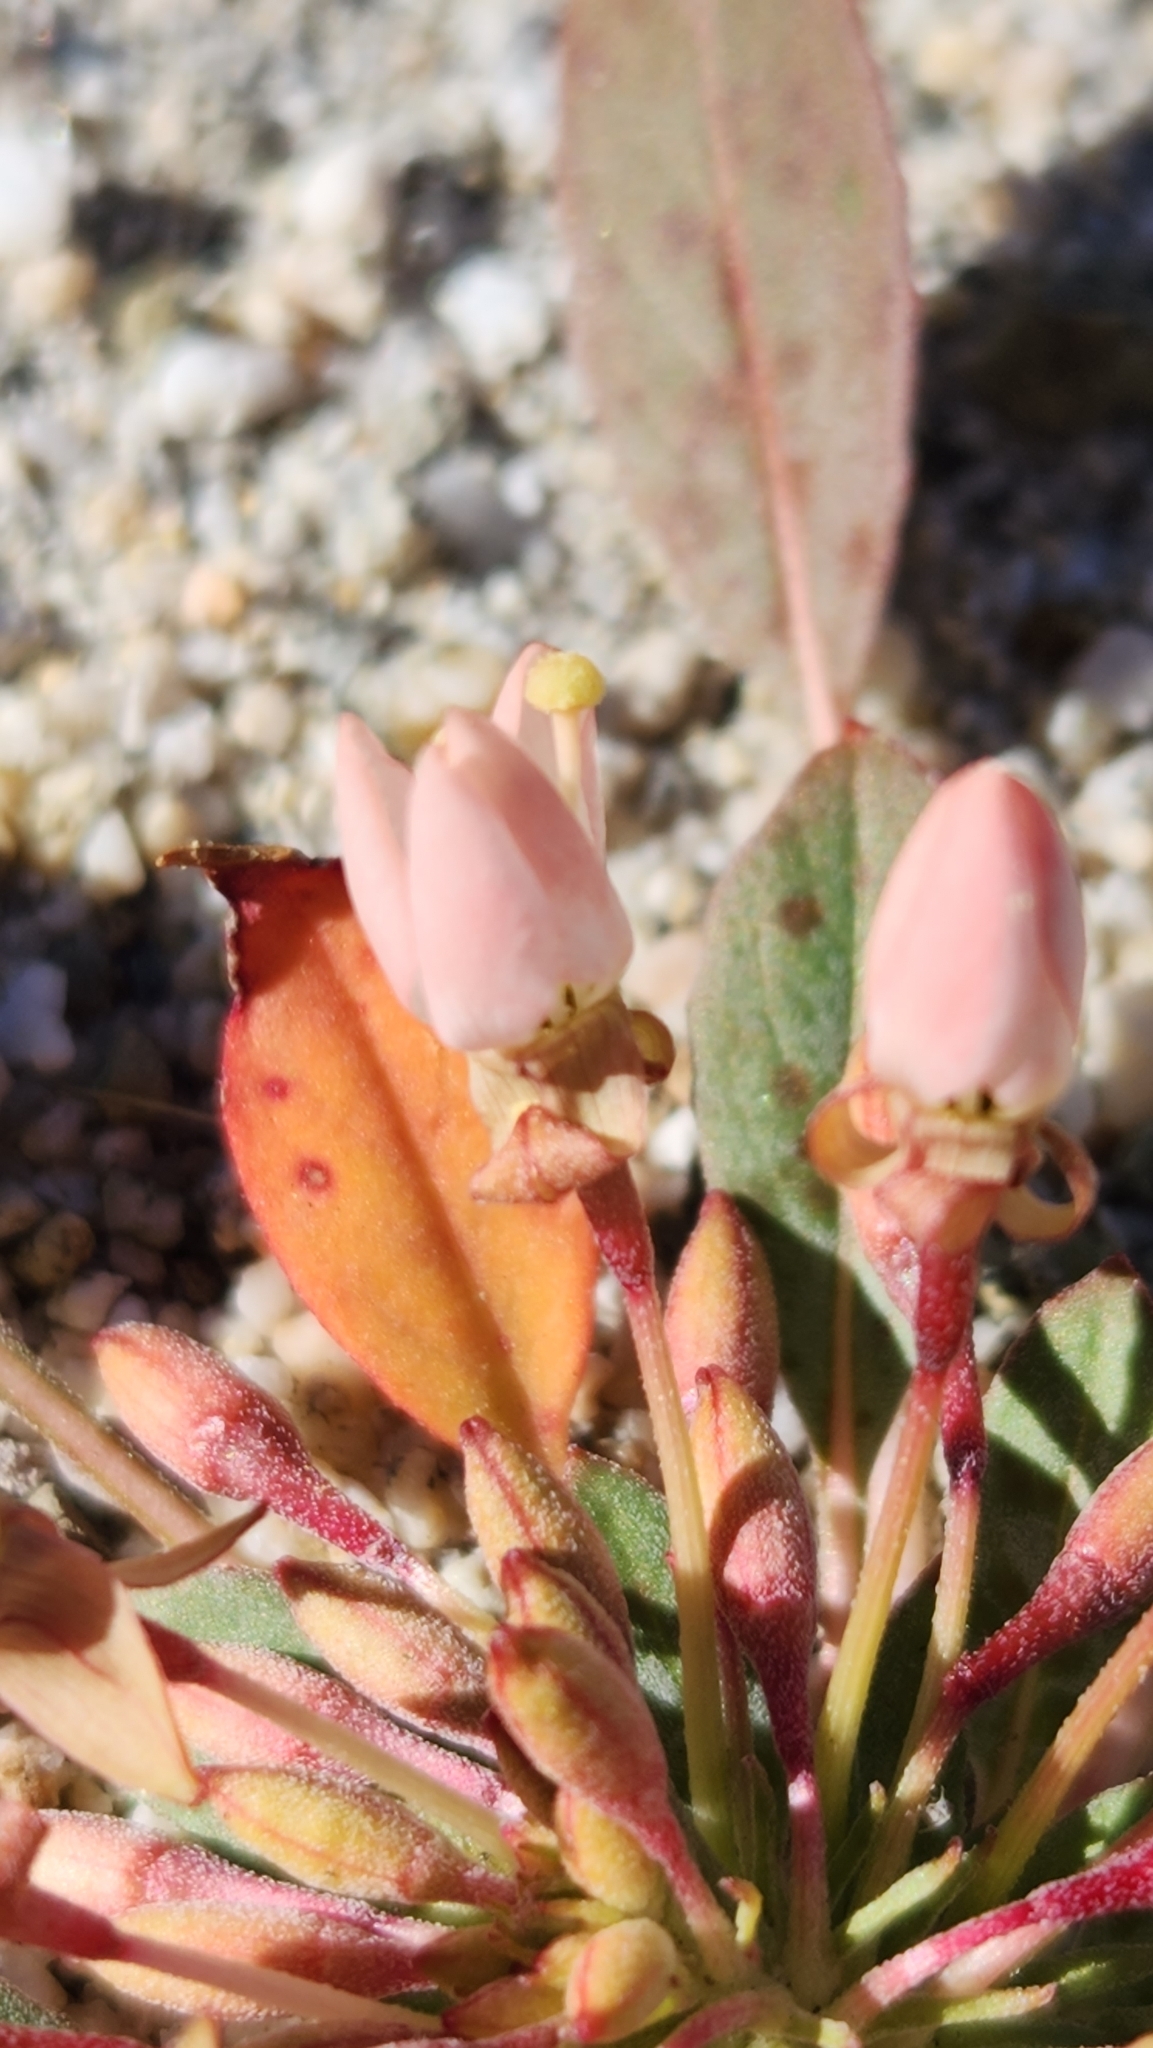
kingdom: Plantae
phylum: Tracheophyta
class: Magnoliopsida
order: Myrtales
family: Onagraceae
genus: Eremothera
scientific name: Eremothera boothii
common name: Booth's evening primrose
